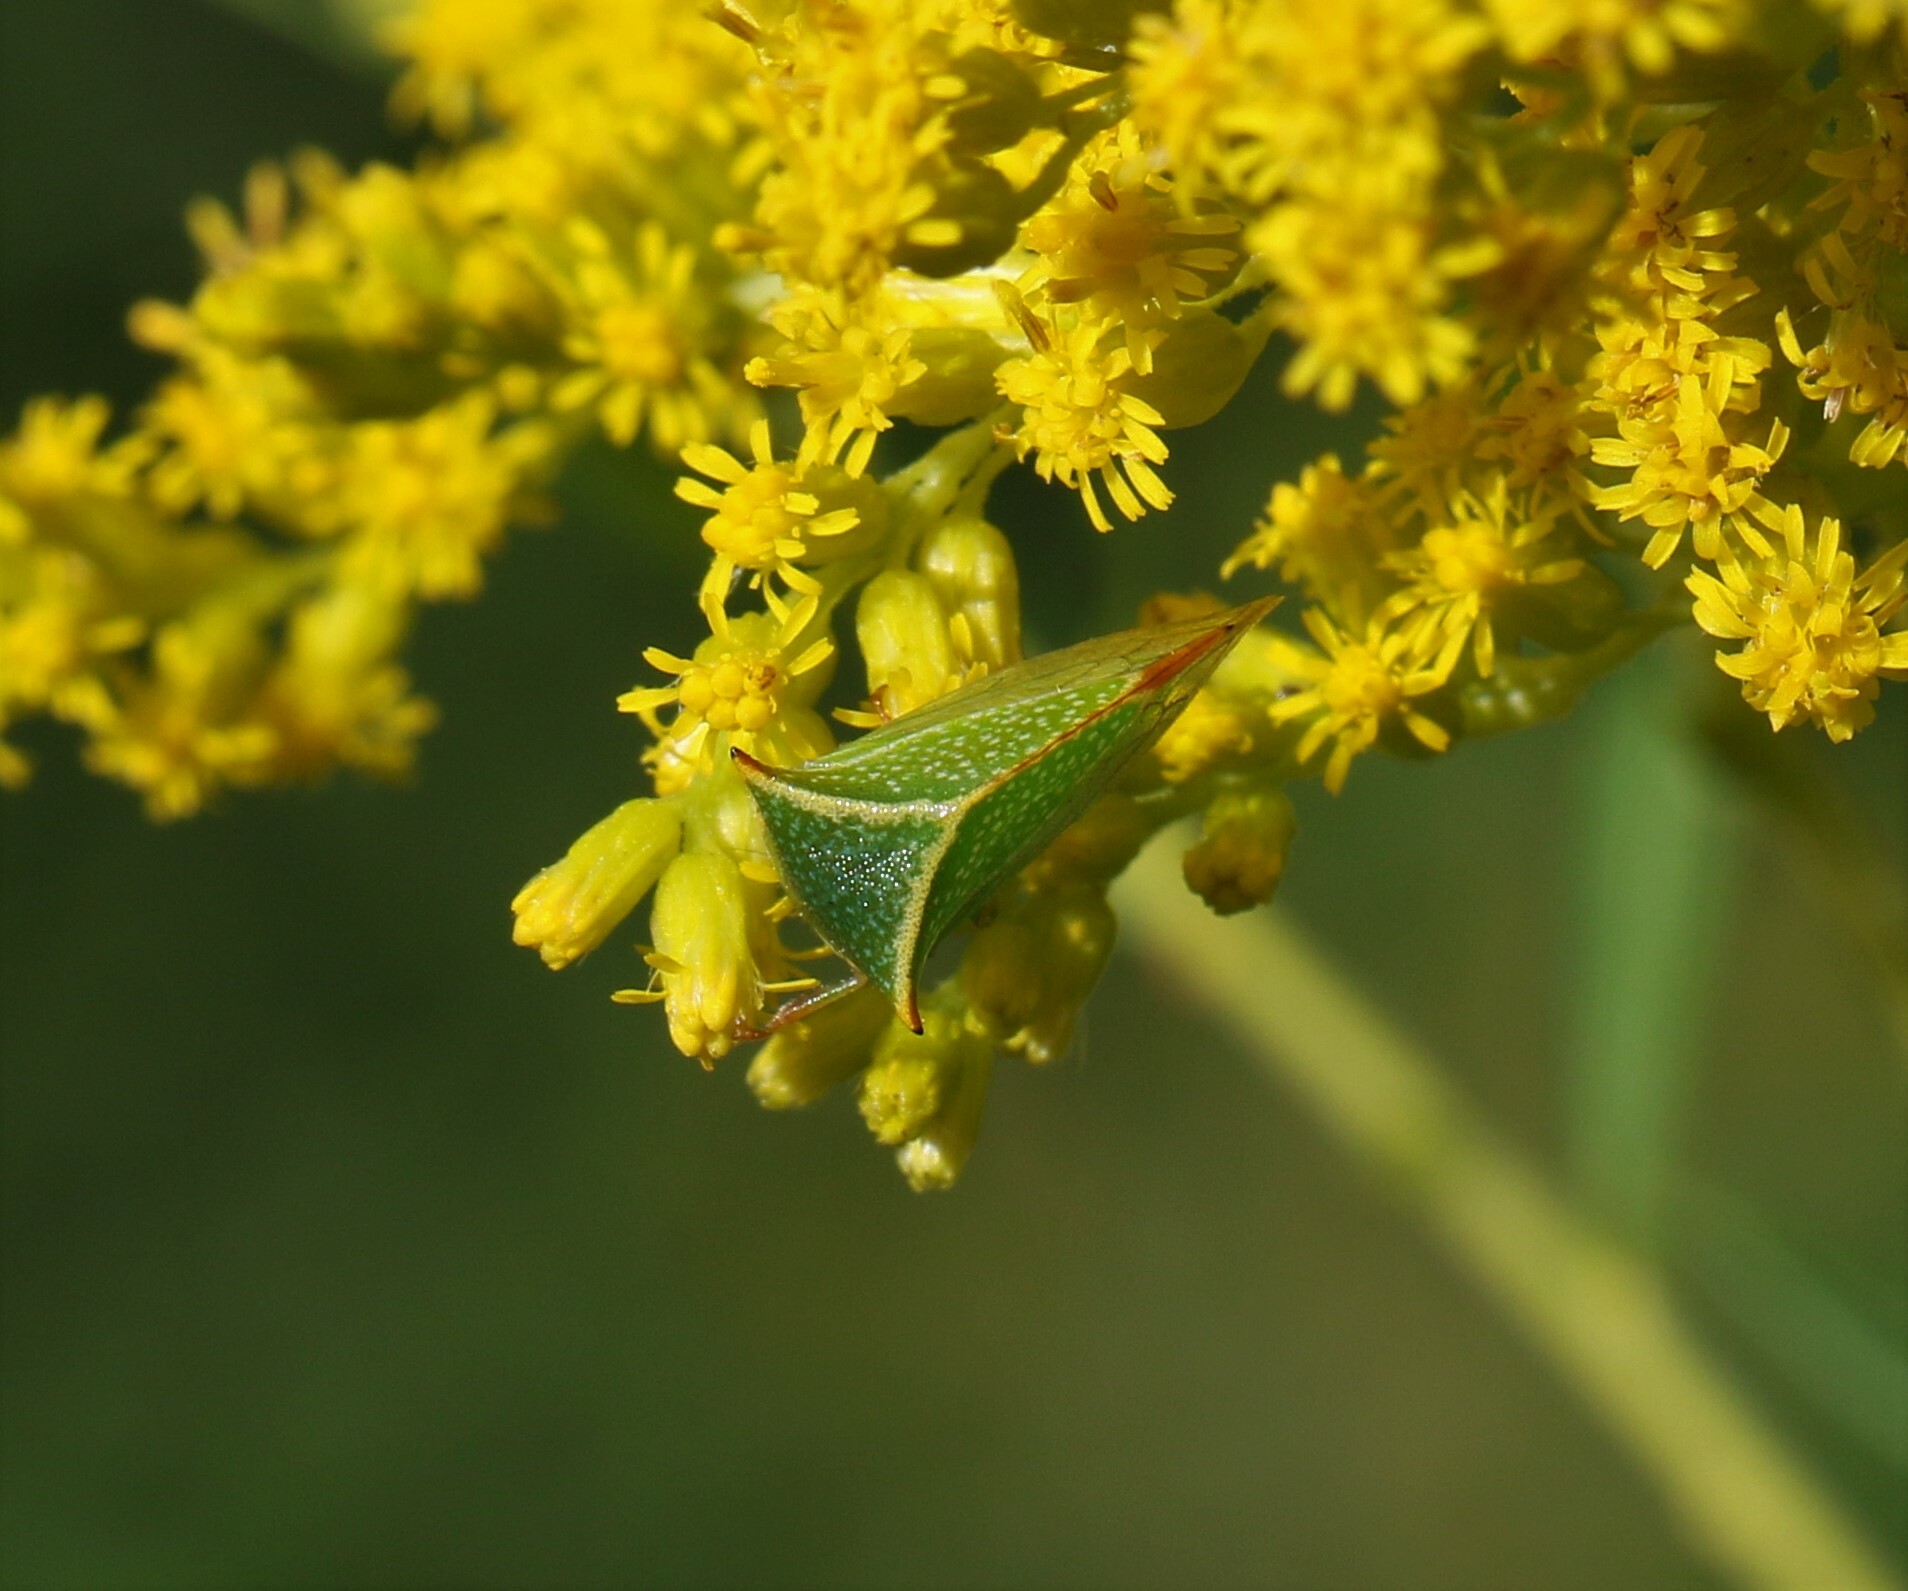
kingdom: Animalia
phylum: Arthropoda
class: Insecta
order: Hemiptera
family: Membracidae
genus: Stictocephala
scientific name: Stictocephala bisonia
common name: American buffalo treehopper
